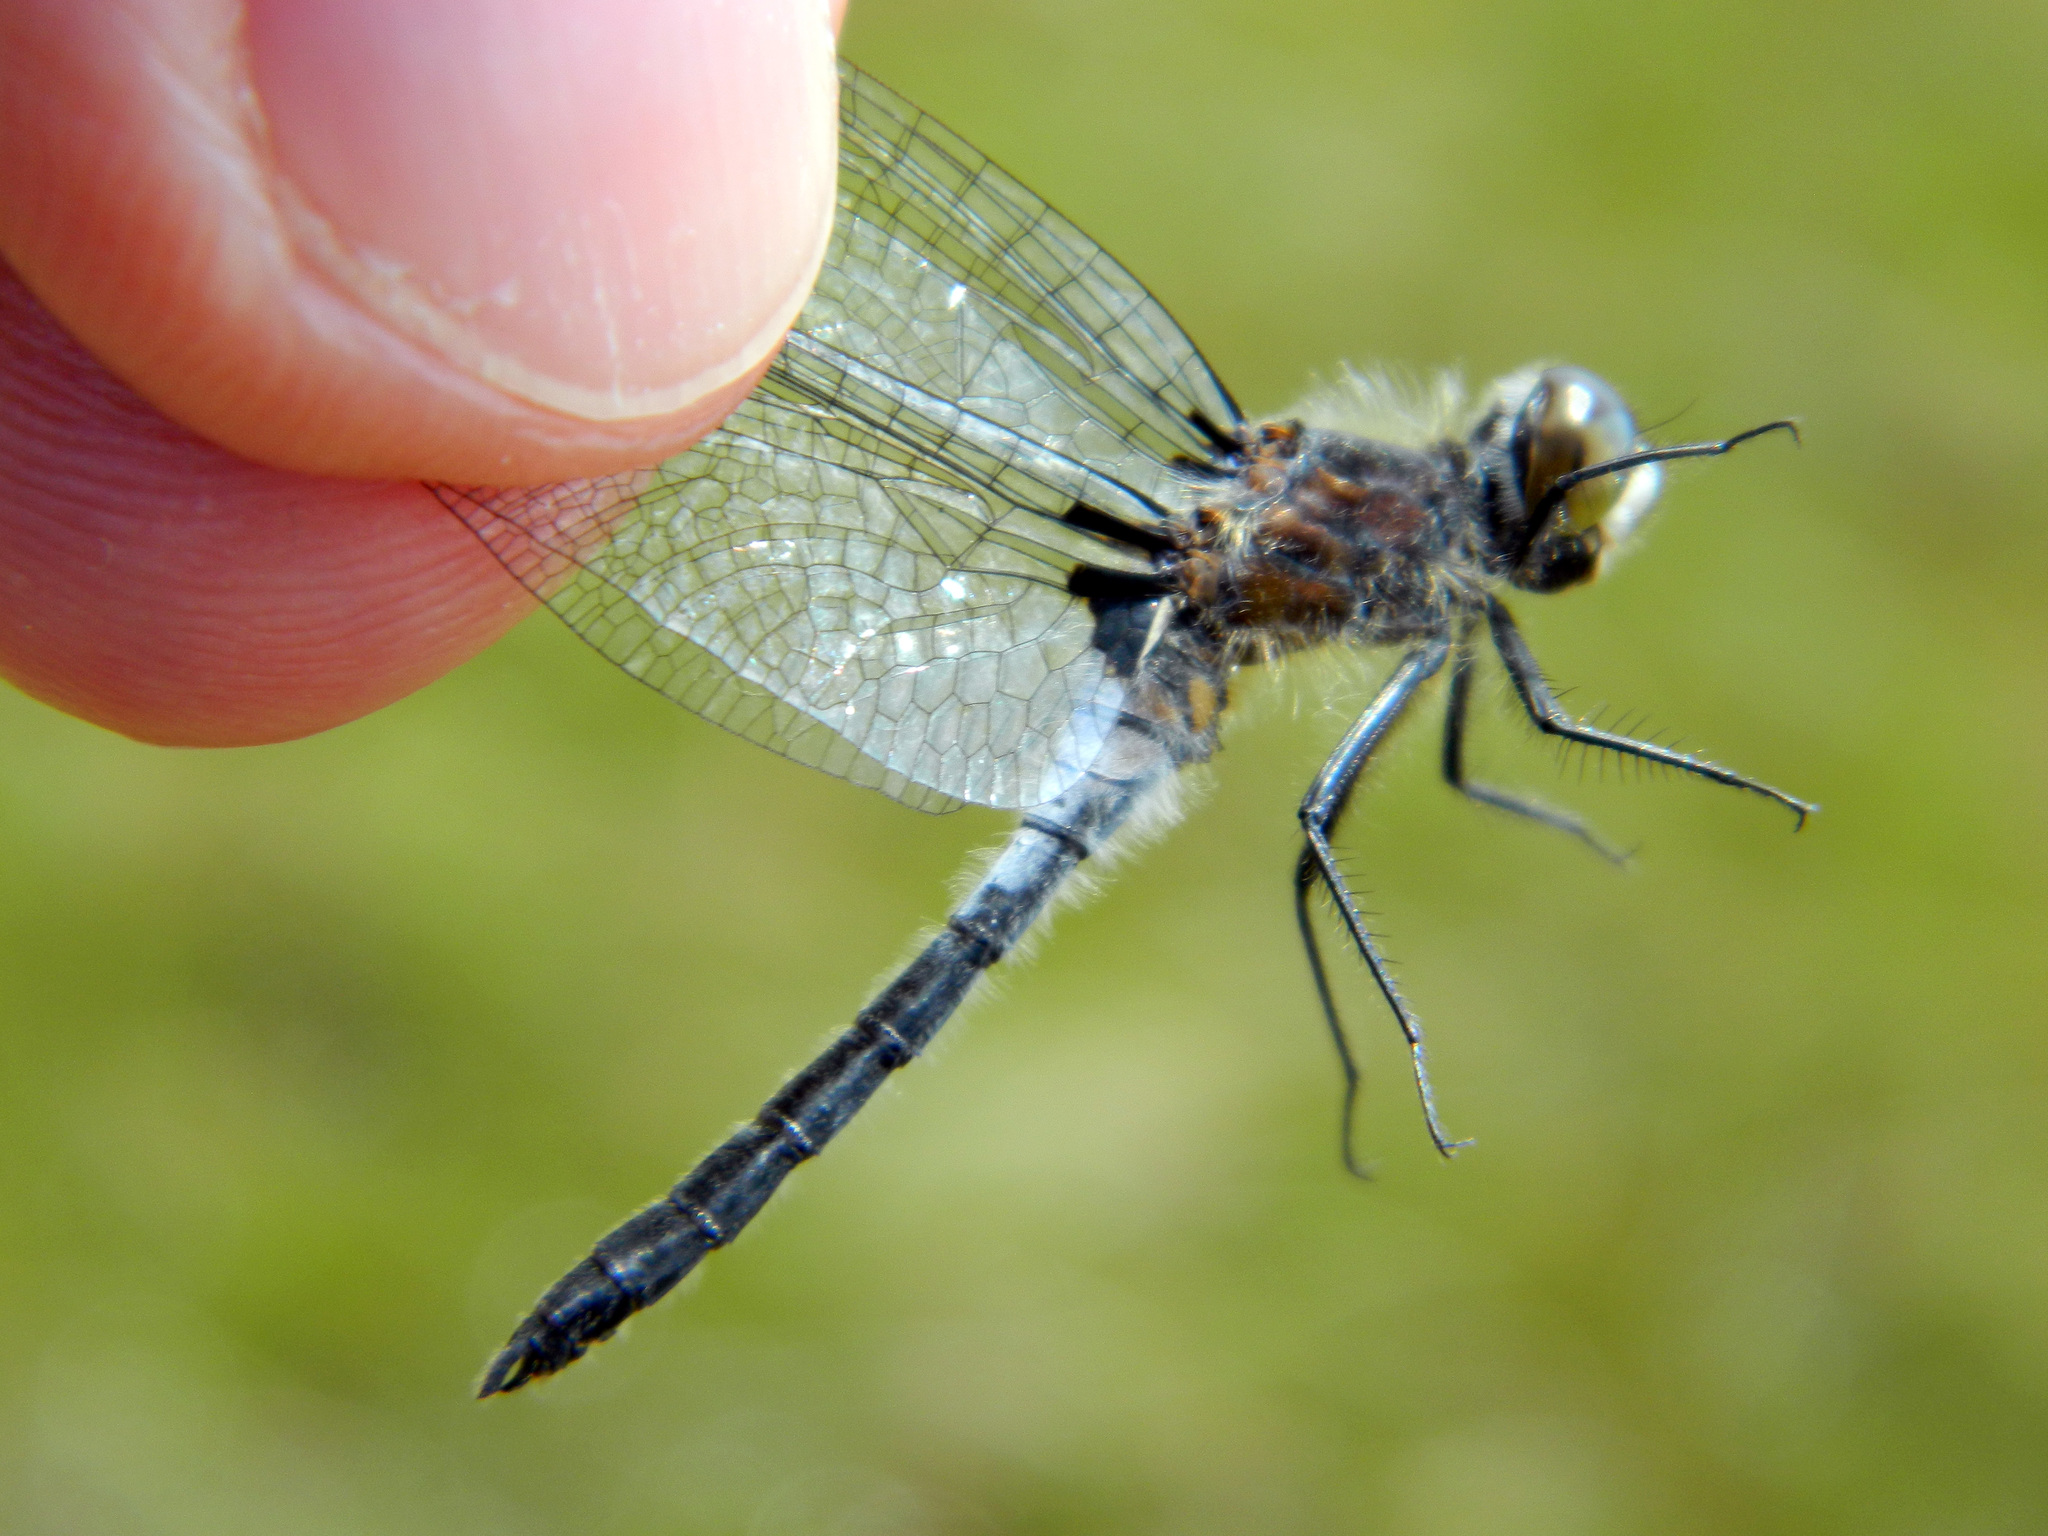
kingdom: Animalia
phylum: Arthropoda
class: Insecta
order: Odonata
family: Libellulidae
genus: Leucorrhinia
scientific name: Leucorrhinia frigida
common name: Frosted whiteface
